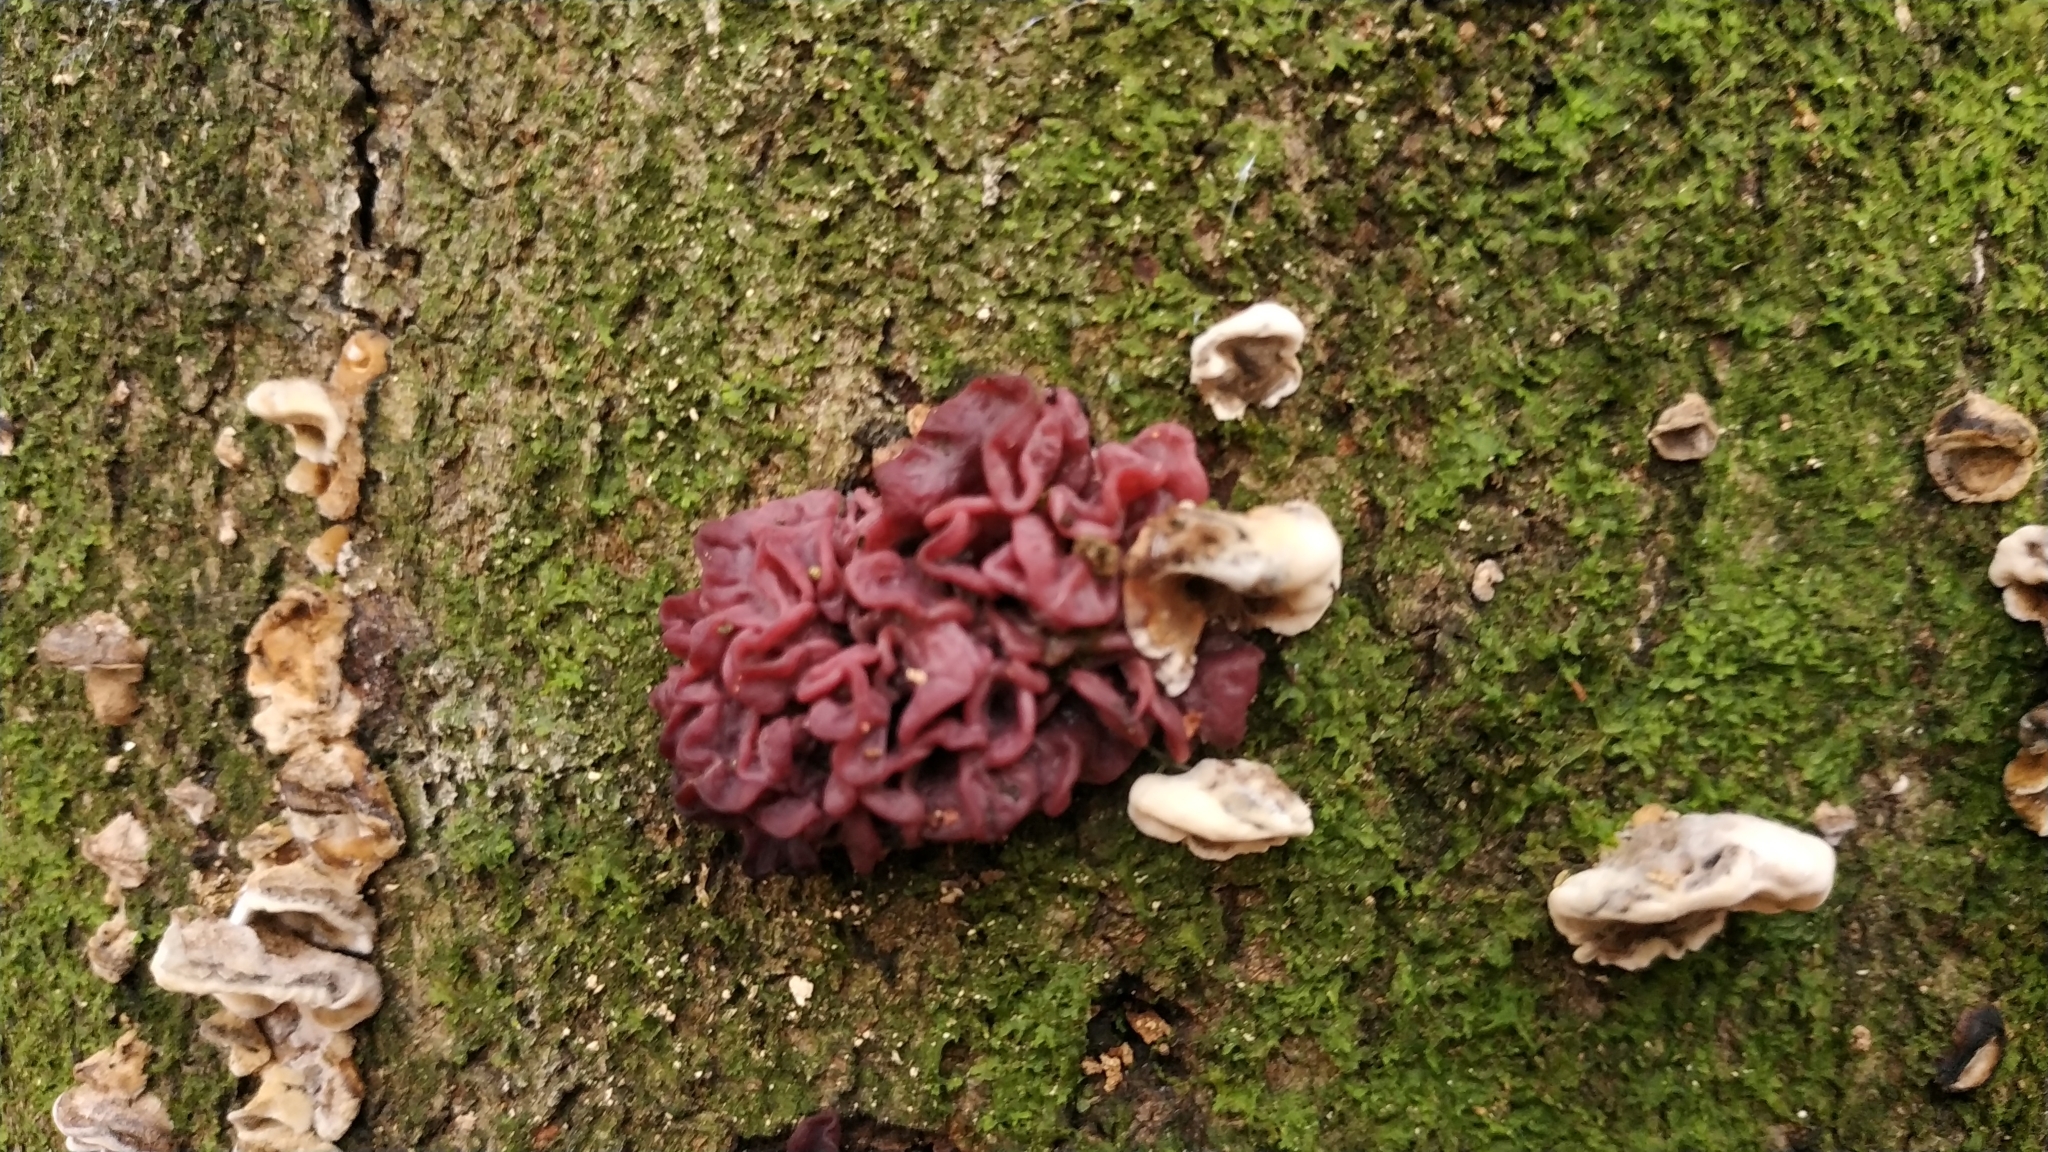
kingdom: Fungi
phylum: Ascomycota
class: Leotiomycetes
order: Helotiales
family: Gelatinodiscaceae
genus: Ascocoryne
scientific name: Ascocoryne sarcoides
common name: Purple jellydisc
